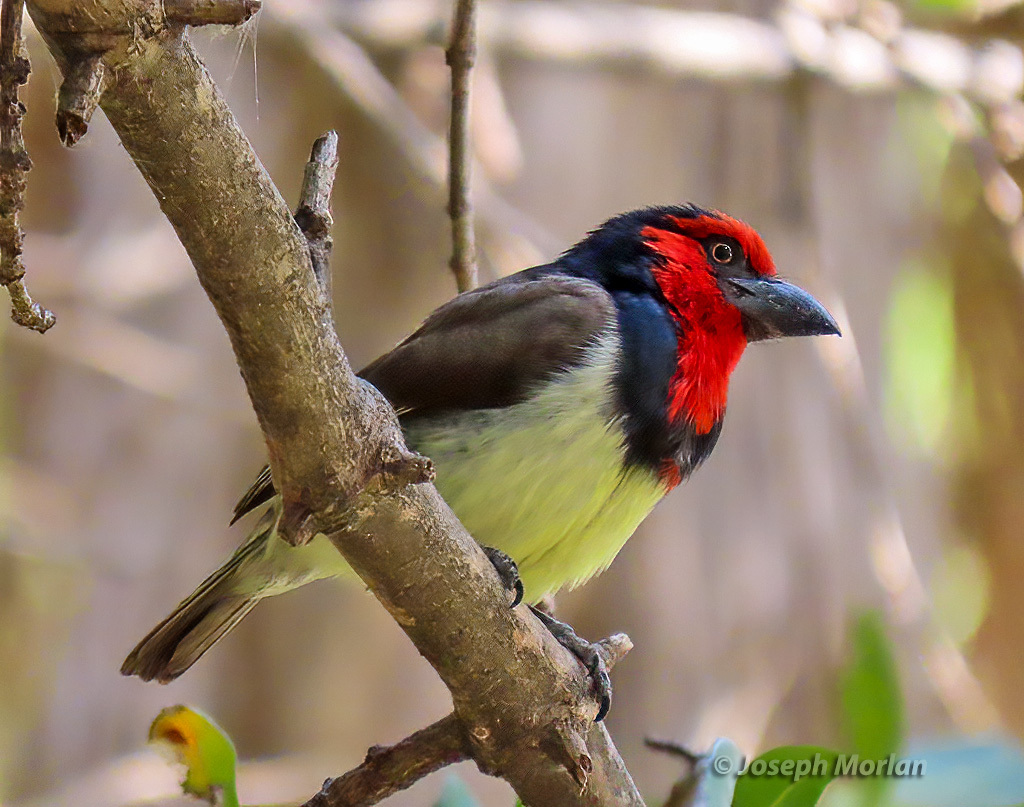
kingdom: Animalia
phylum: Chordata
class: Aves
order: Piciformes
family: Lybiidae
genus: Lybius
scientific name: Lybius torquatus
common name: Black-collared barbet
